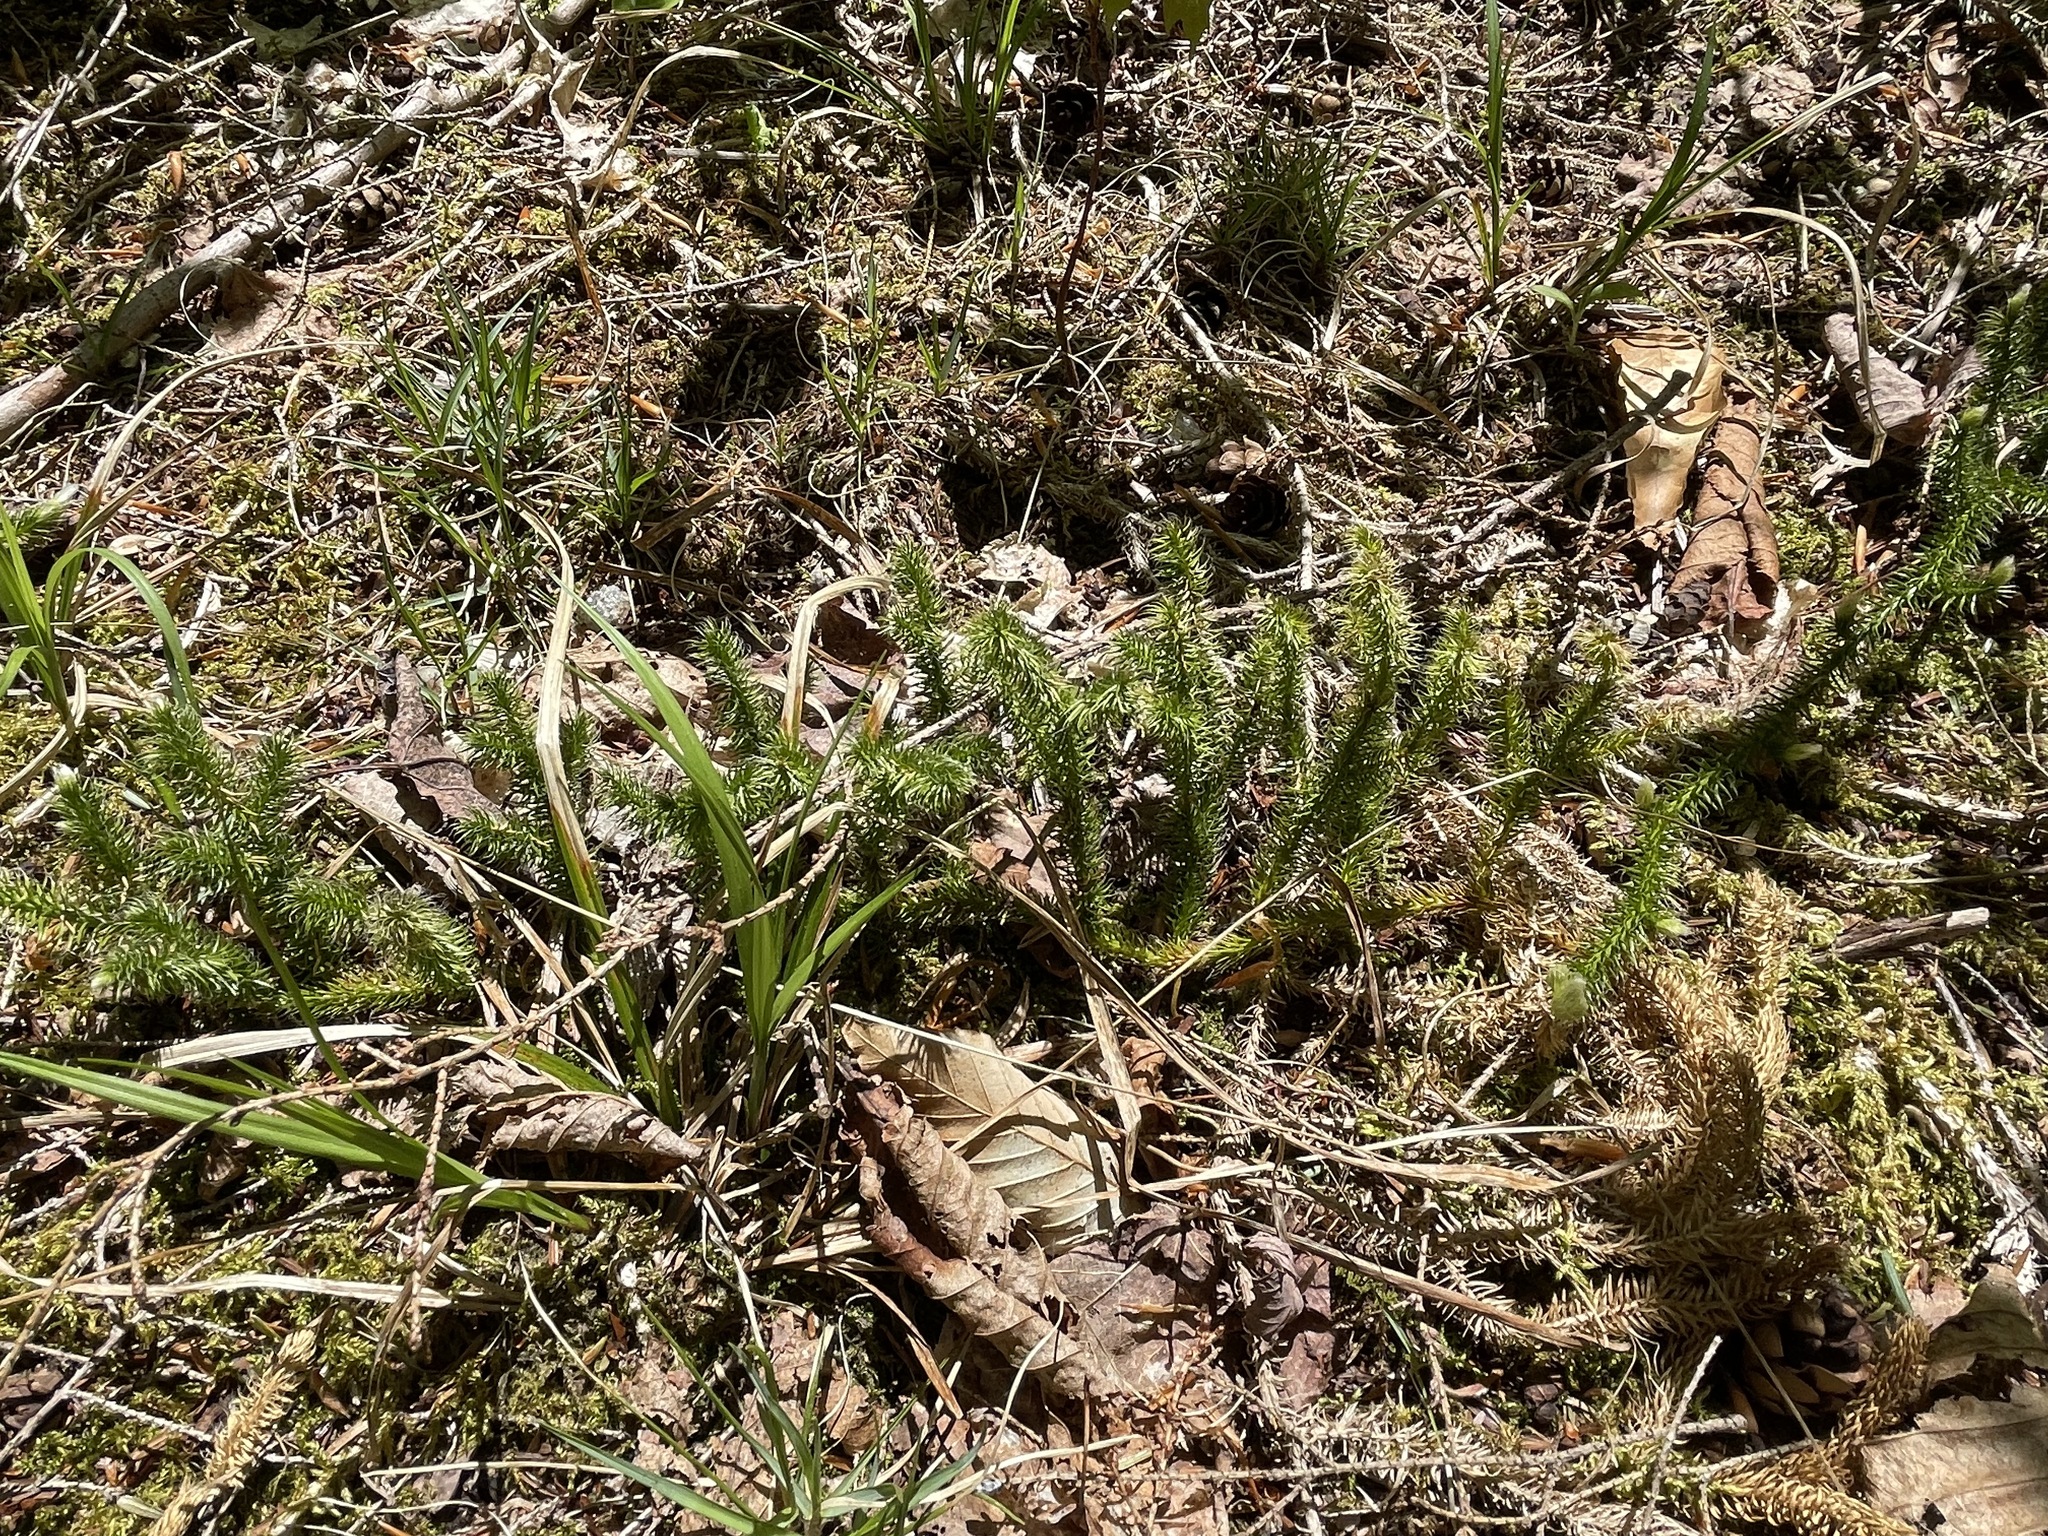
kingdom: Plantae
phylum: Tracheophyta
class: Lycopodiopsida
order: Lycopodiales
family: Lycopodiaceae
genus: Lycopodium
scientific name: Lycopodium clavatum
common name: Stag's-horn clubmoss
